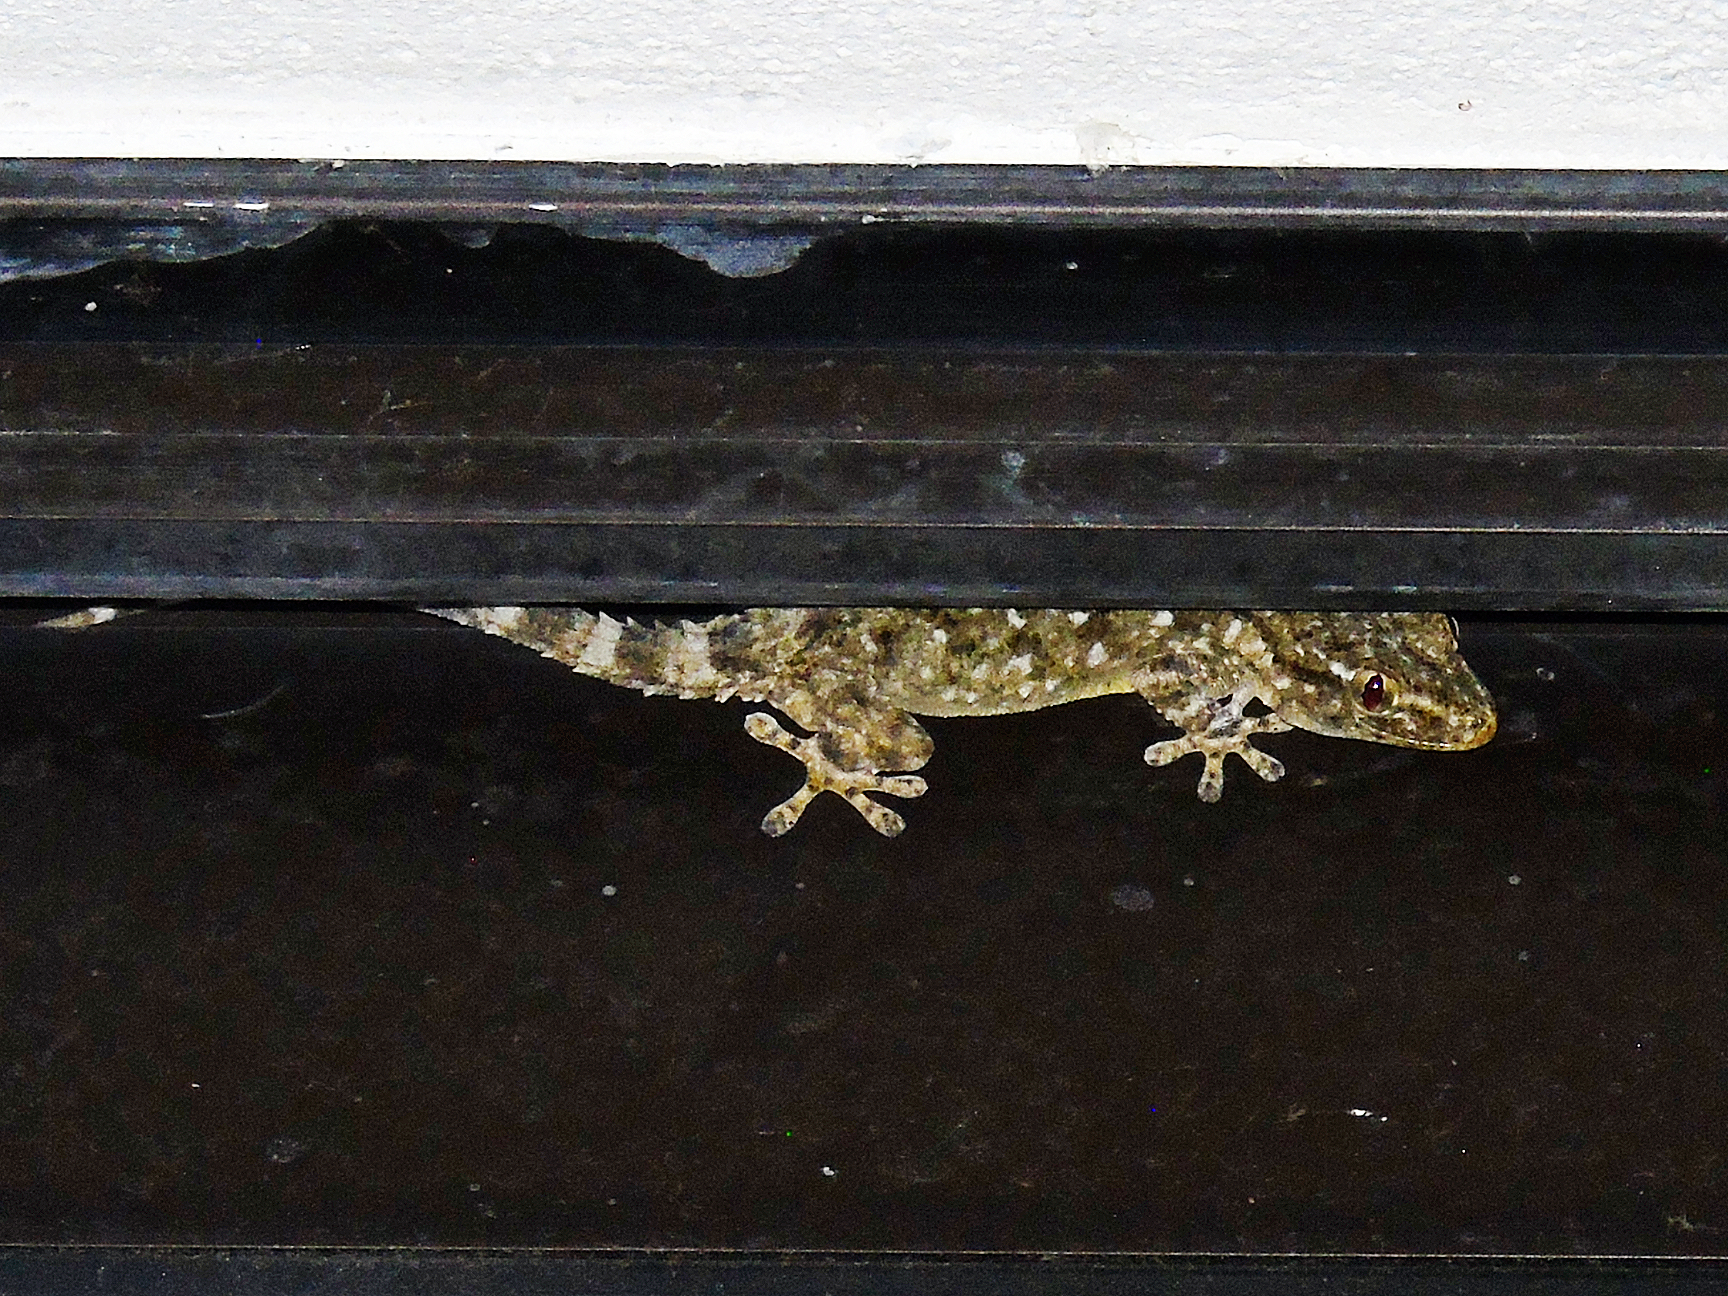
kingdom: Animalia
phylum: Chordata
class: Squamata
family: Phyllodactylidae
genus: Tarentola
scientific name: Tarentola mauritanica
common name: Moorish gecko
